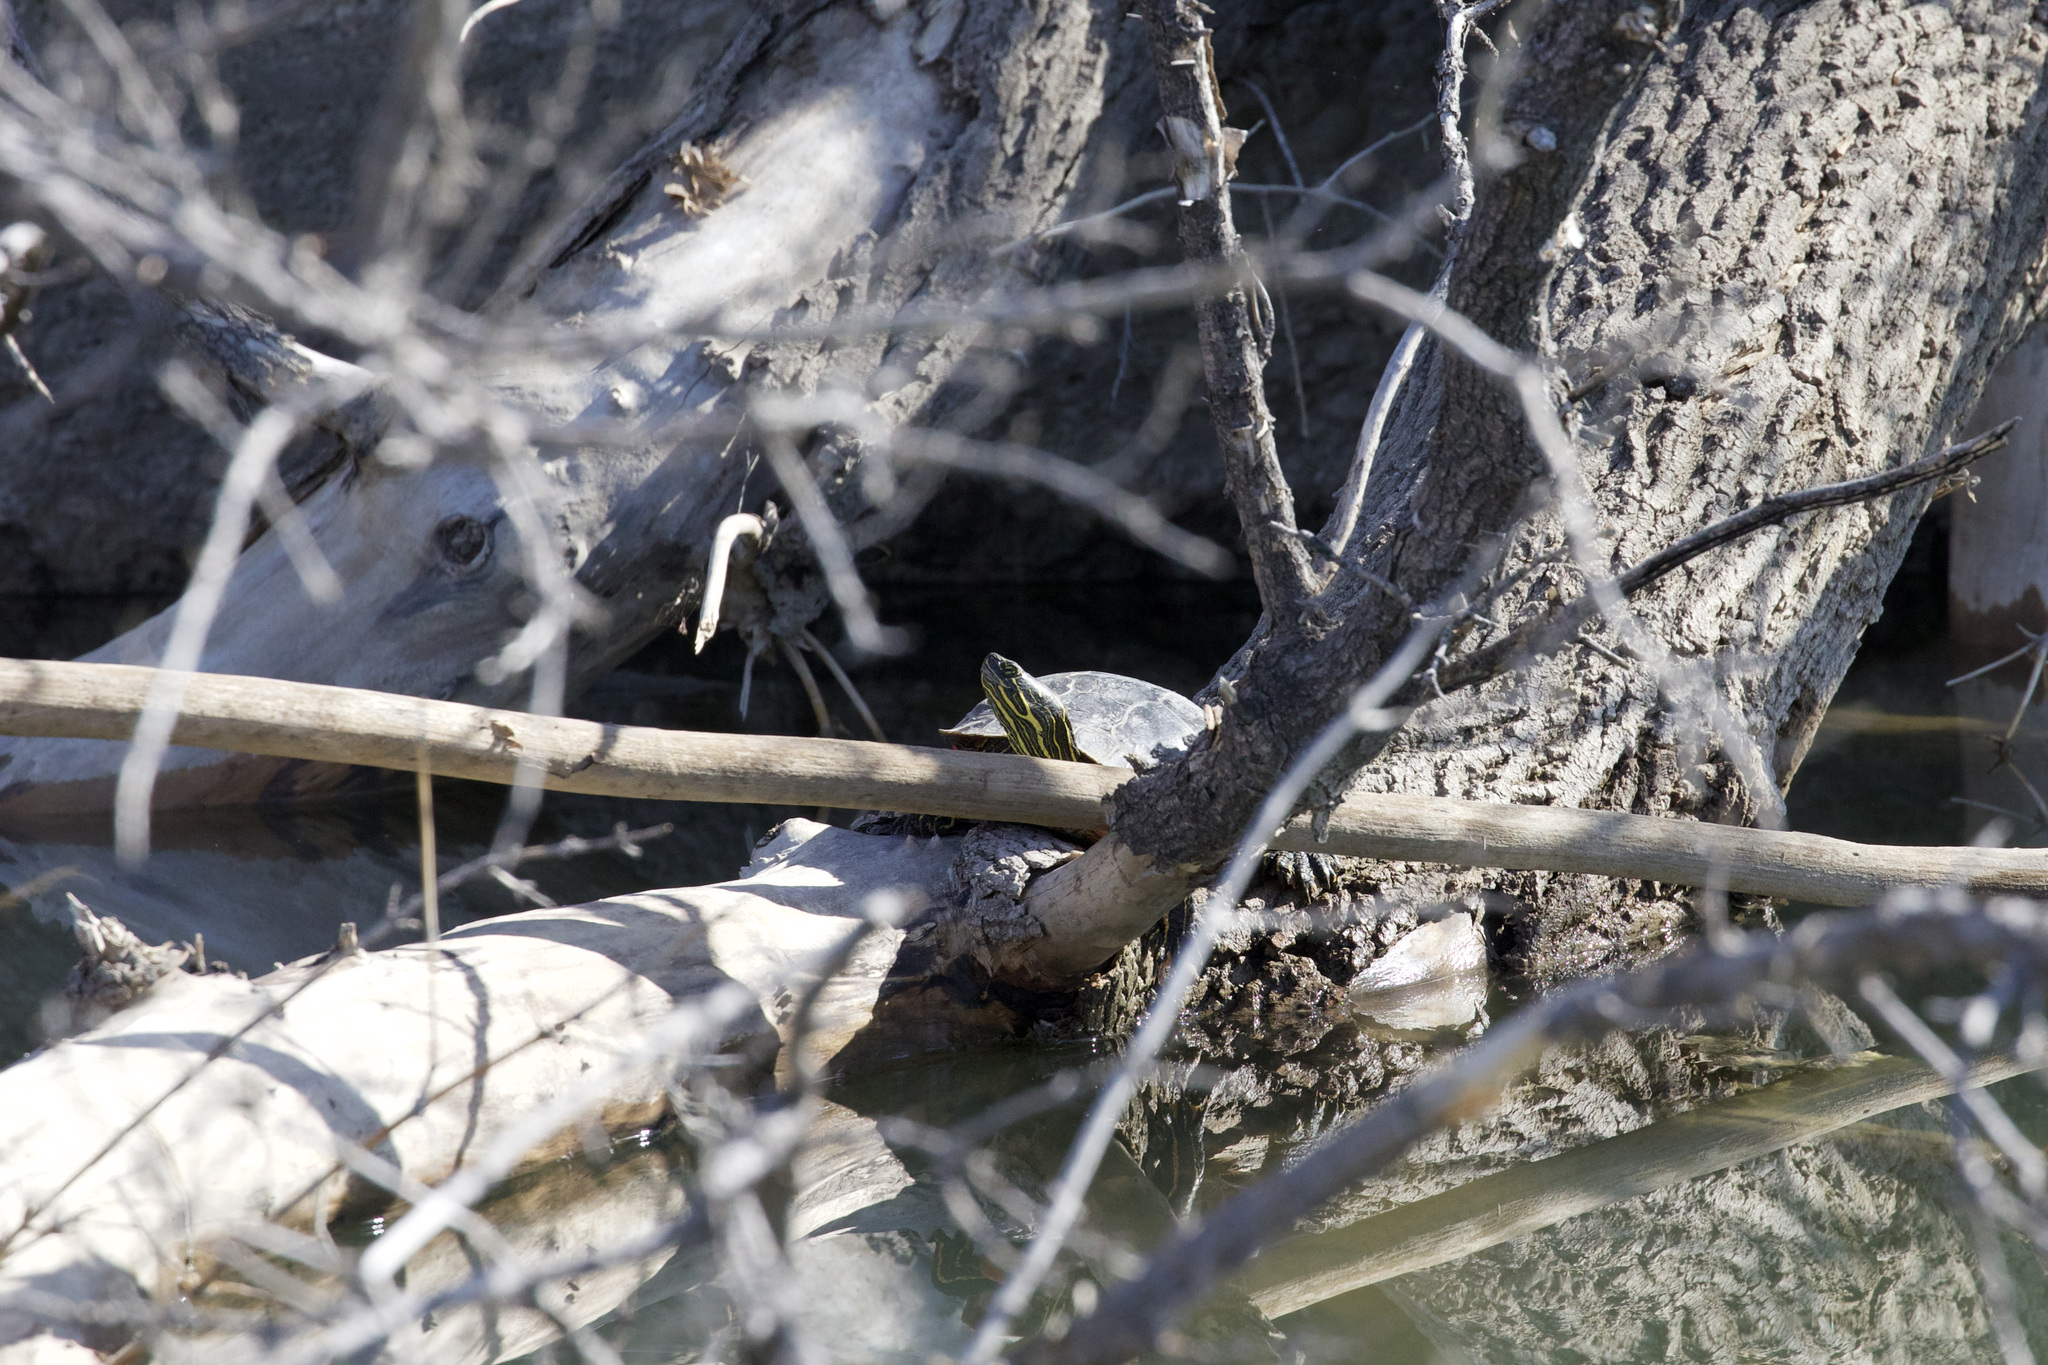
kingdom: Animalia
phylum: Chordata
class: Testudines
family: Emydidae
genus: Chrysemys
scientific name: Chrysemys picta
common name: Painted turtle
